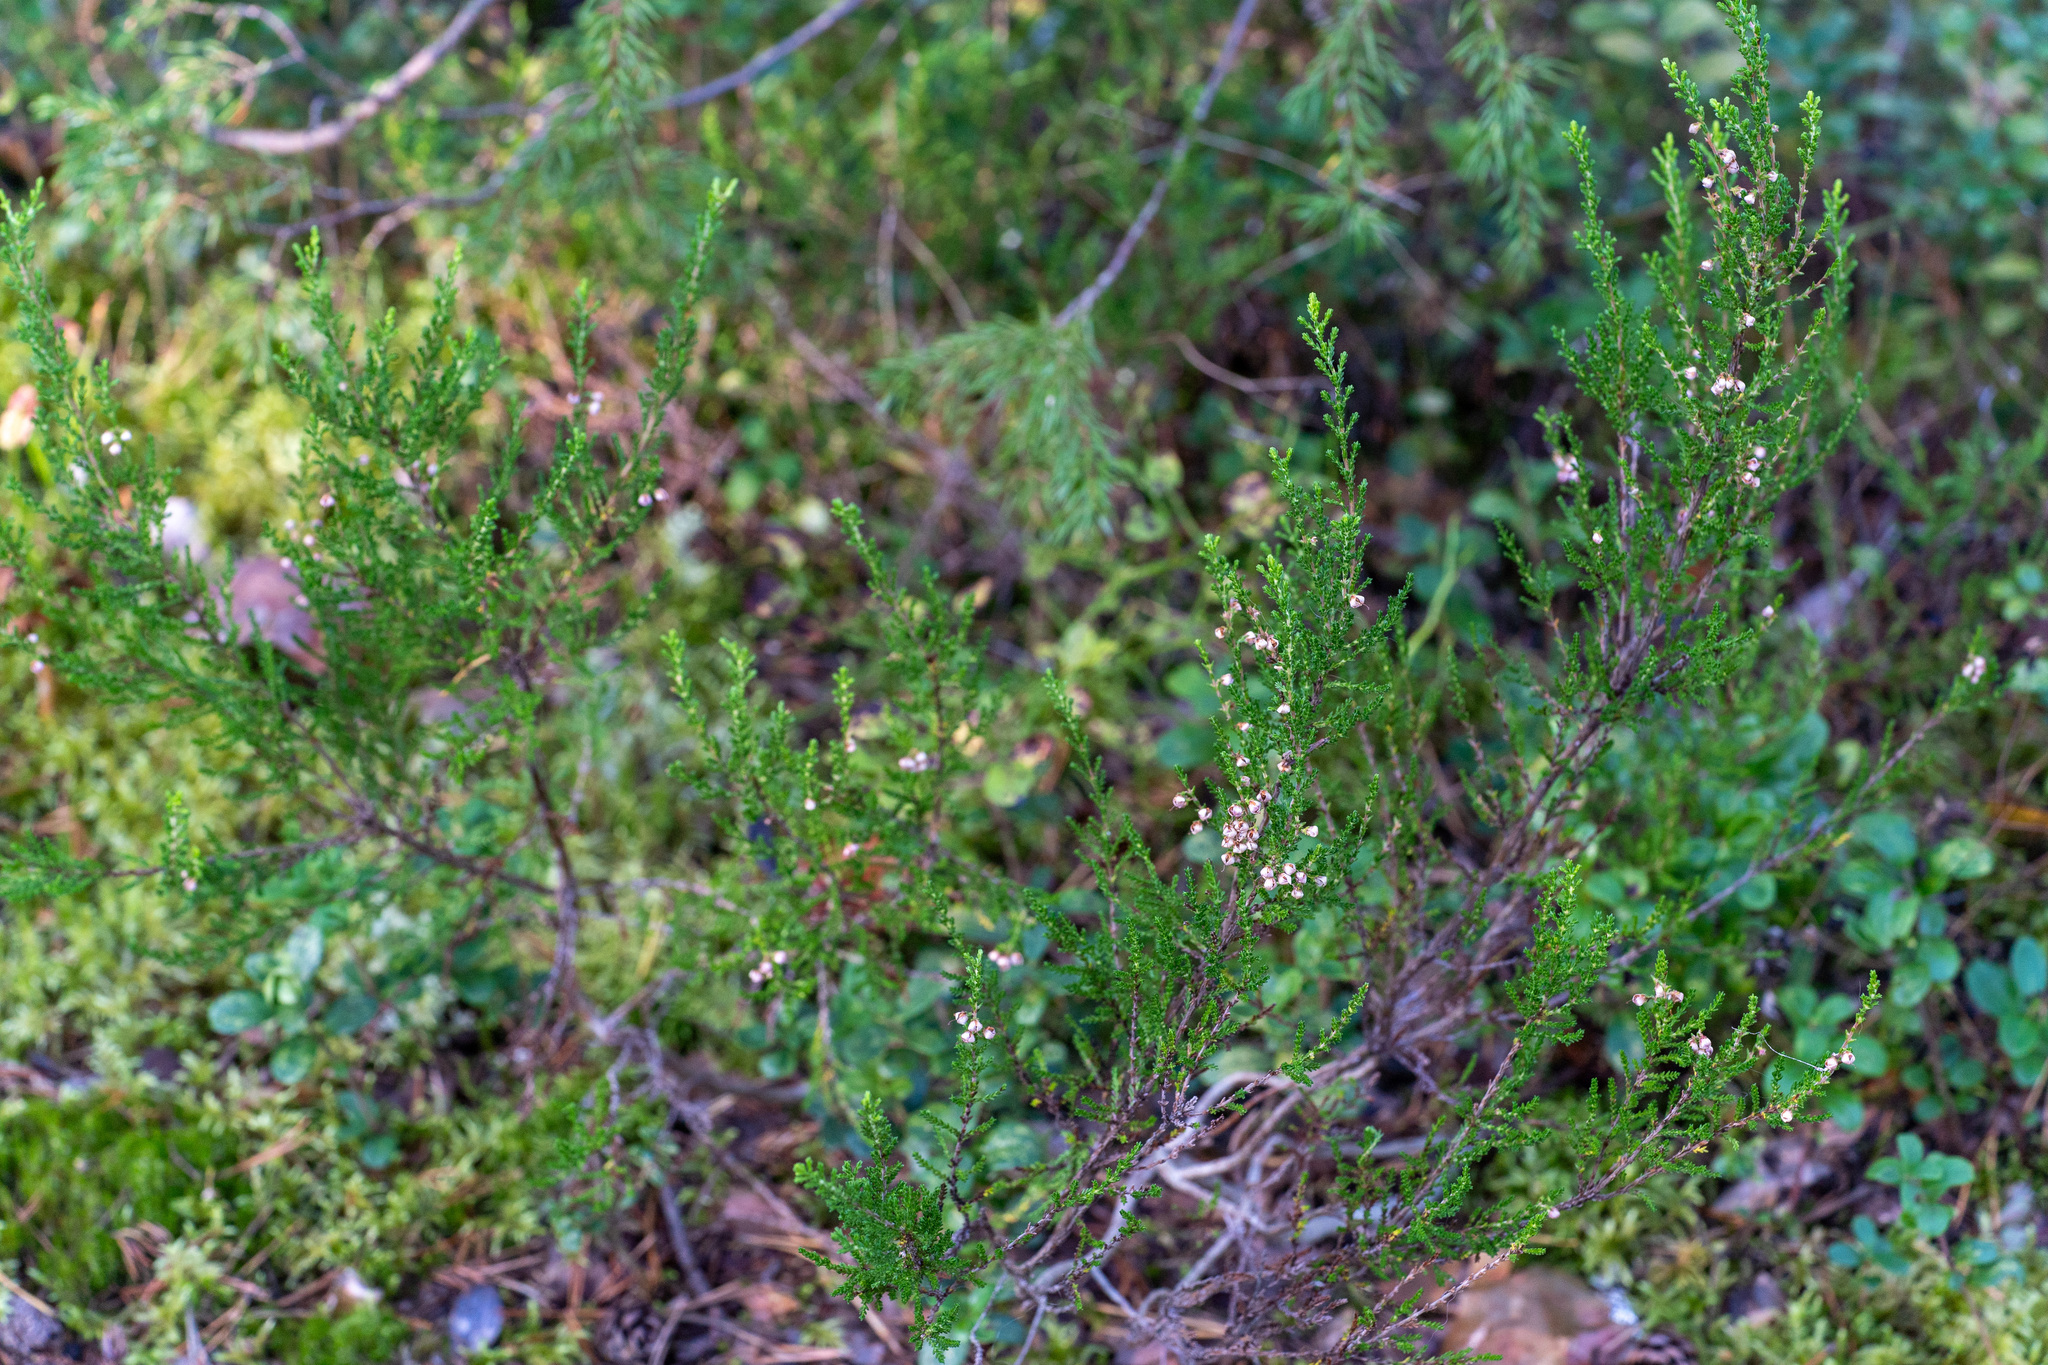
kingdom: Plantae
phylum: Tracheophyta
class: Magnoliopsida
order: Ericales
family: Ericaceae
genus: Calluna
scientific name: Calluna vulgaris
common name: Heather
